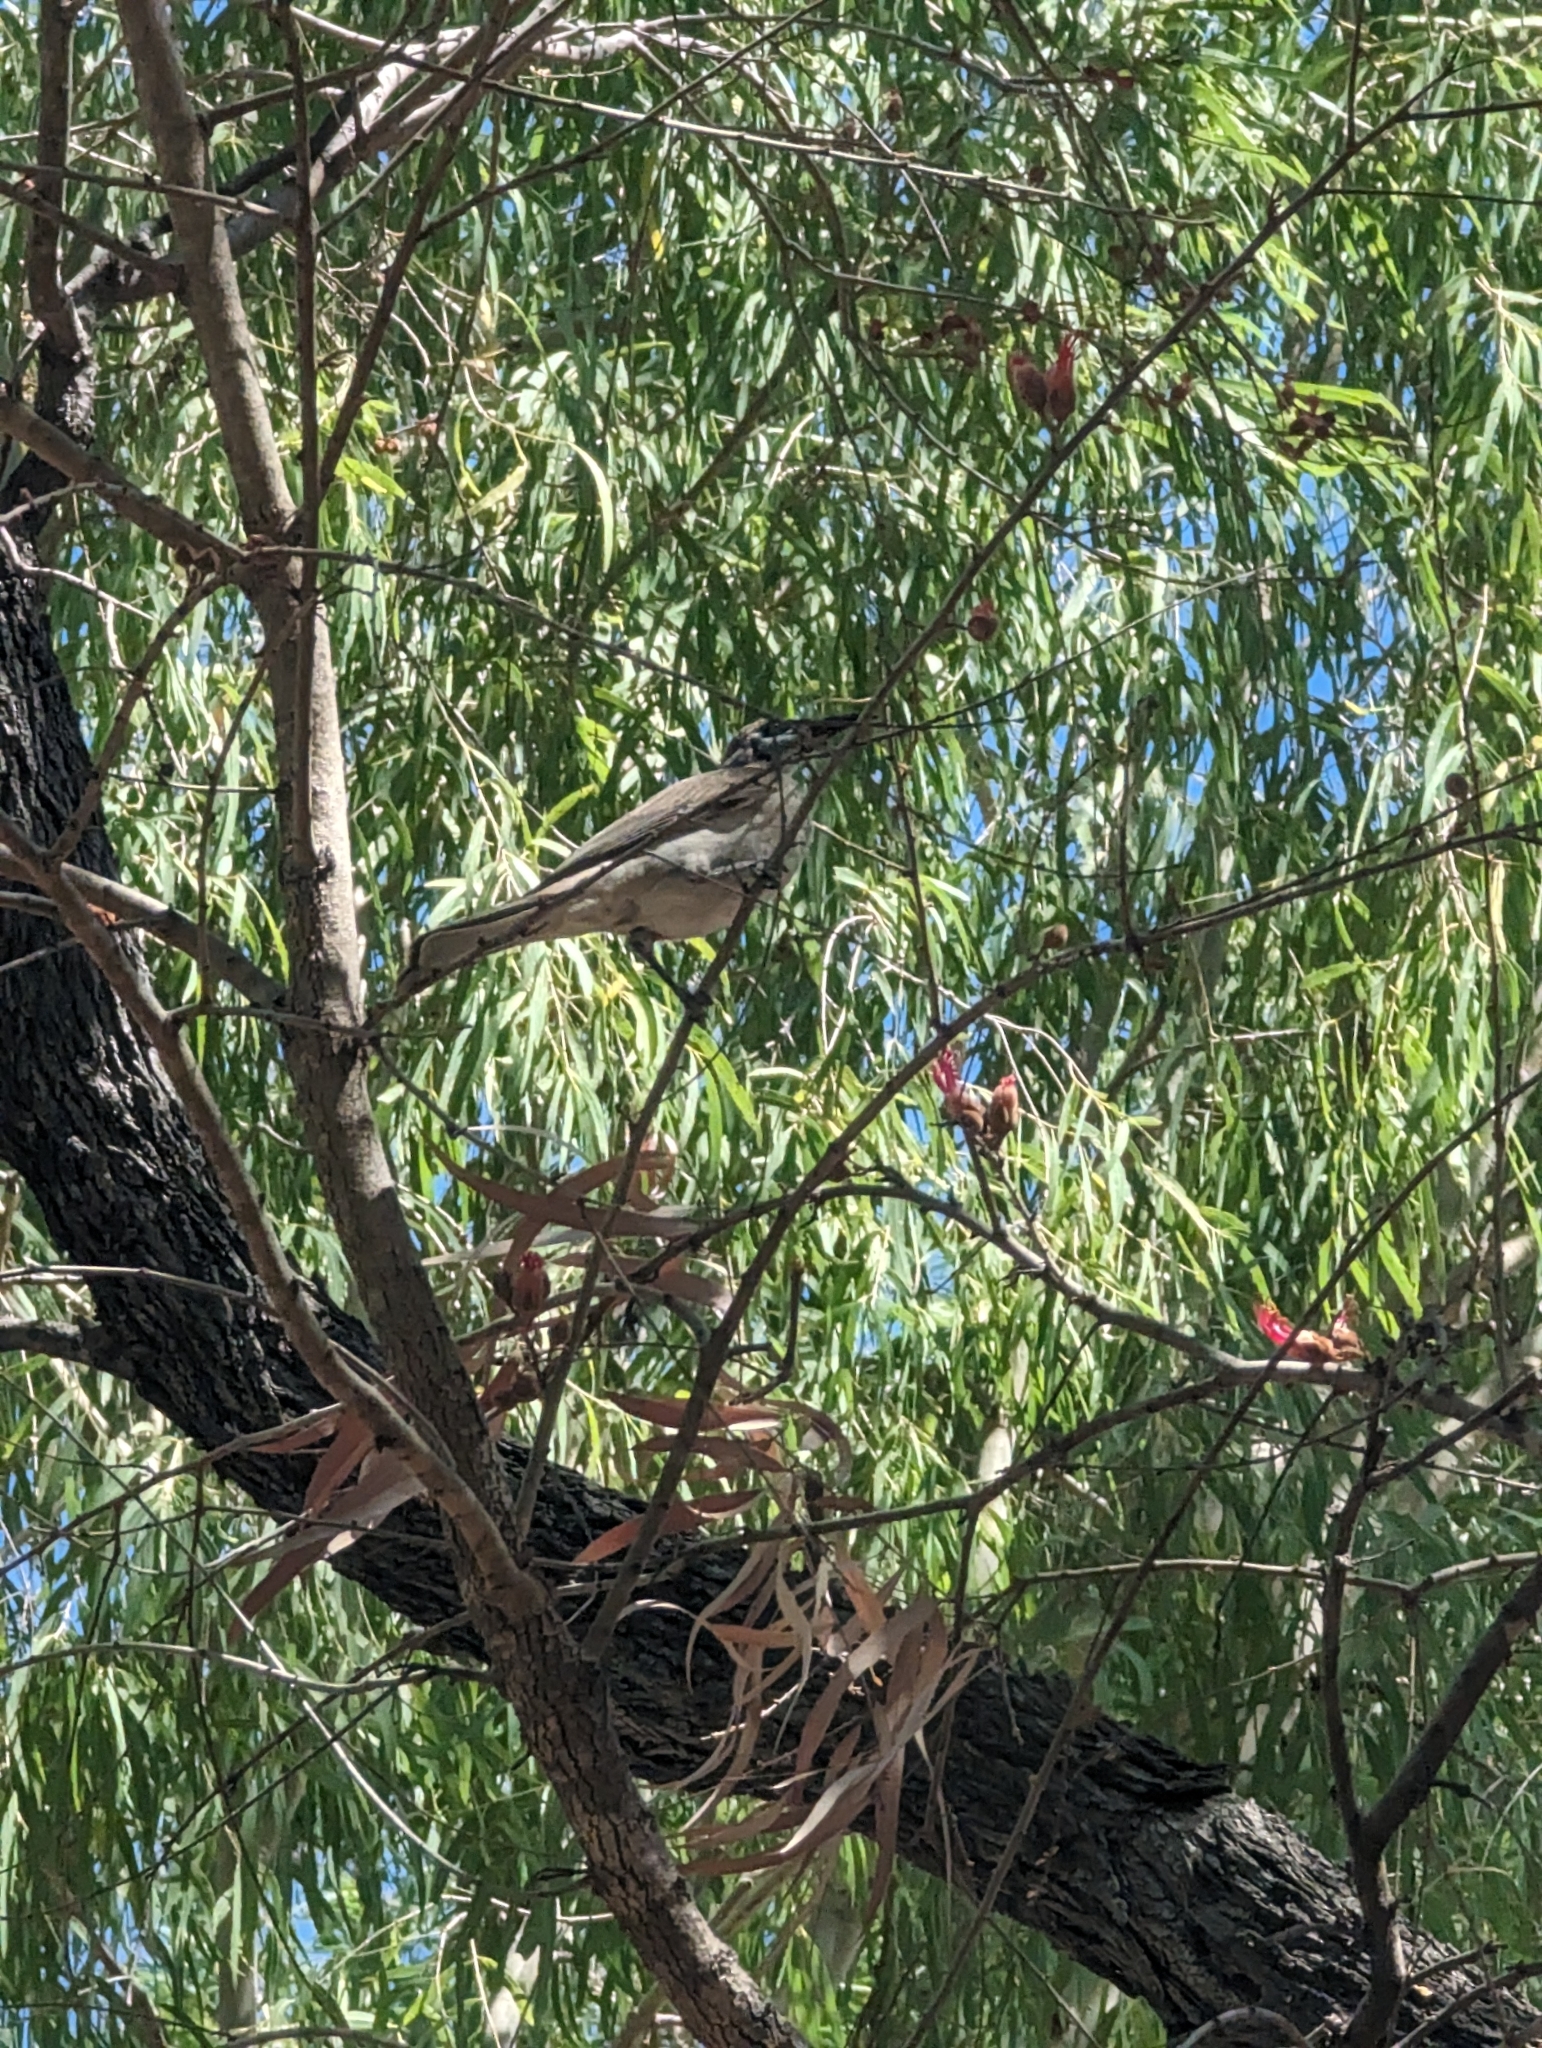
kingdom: Animalia
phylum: Chordata
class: Aves
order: Passeriformes
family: Meliphagidae
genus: Philemon
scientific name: Philemon citreogularis
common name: Little friarbird
